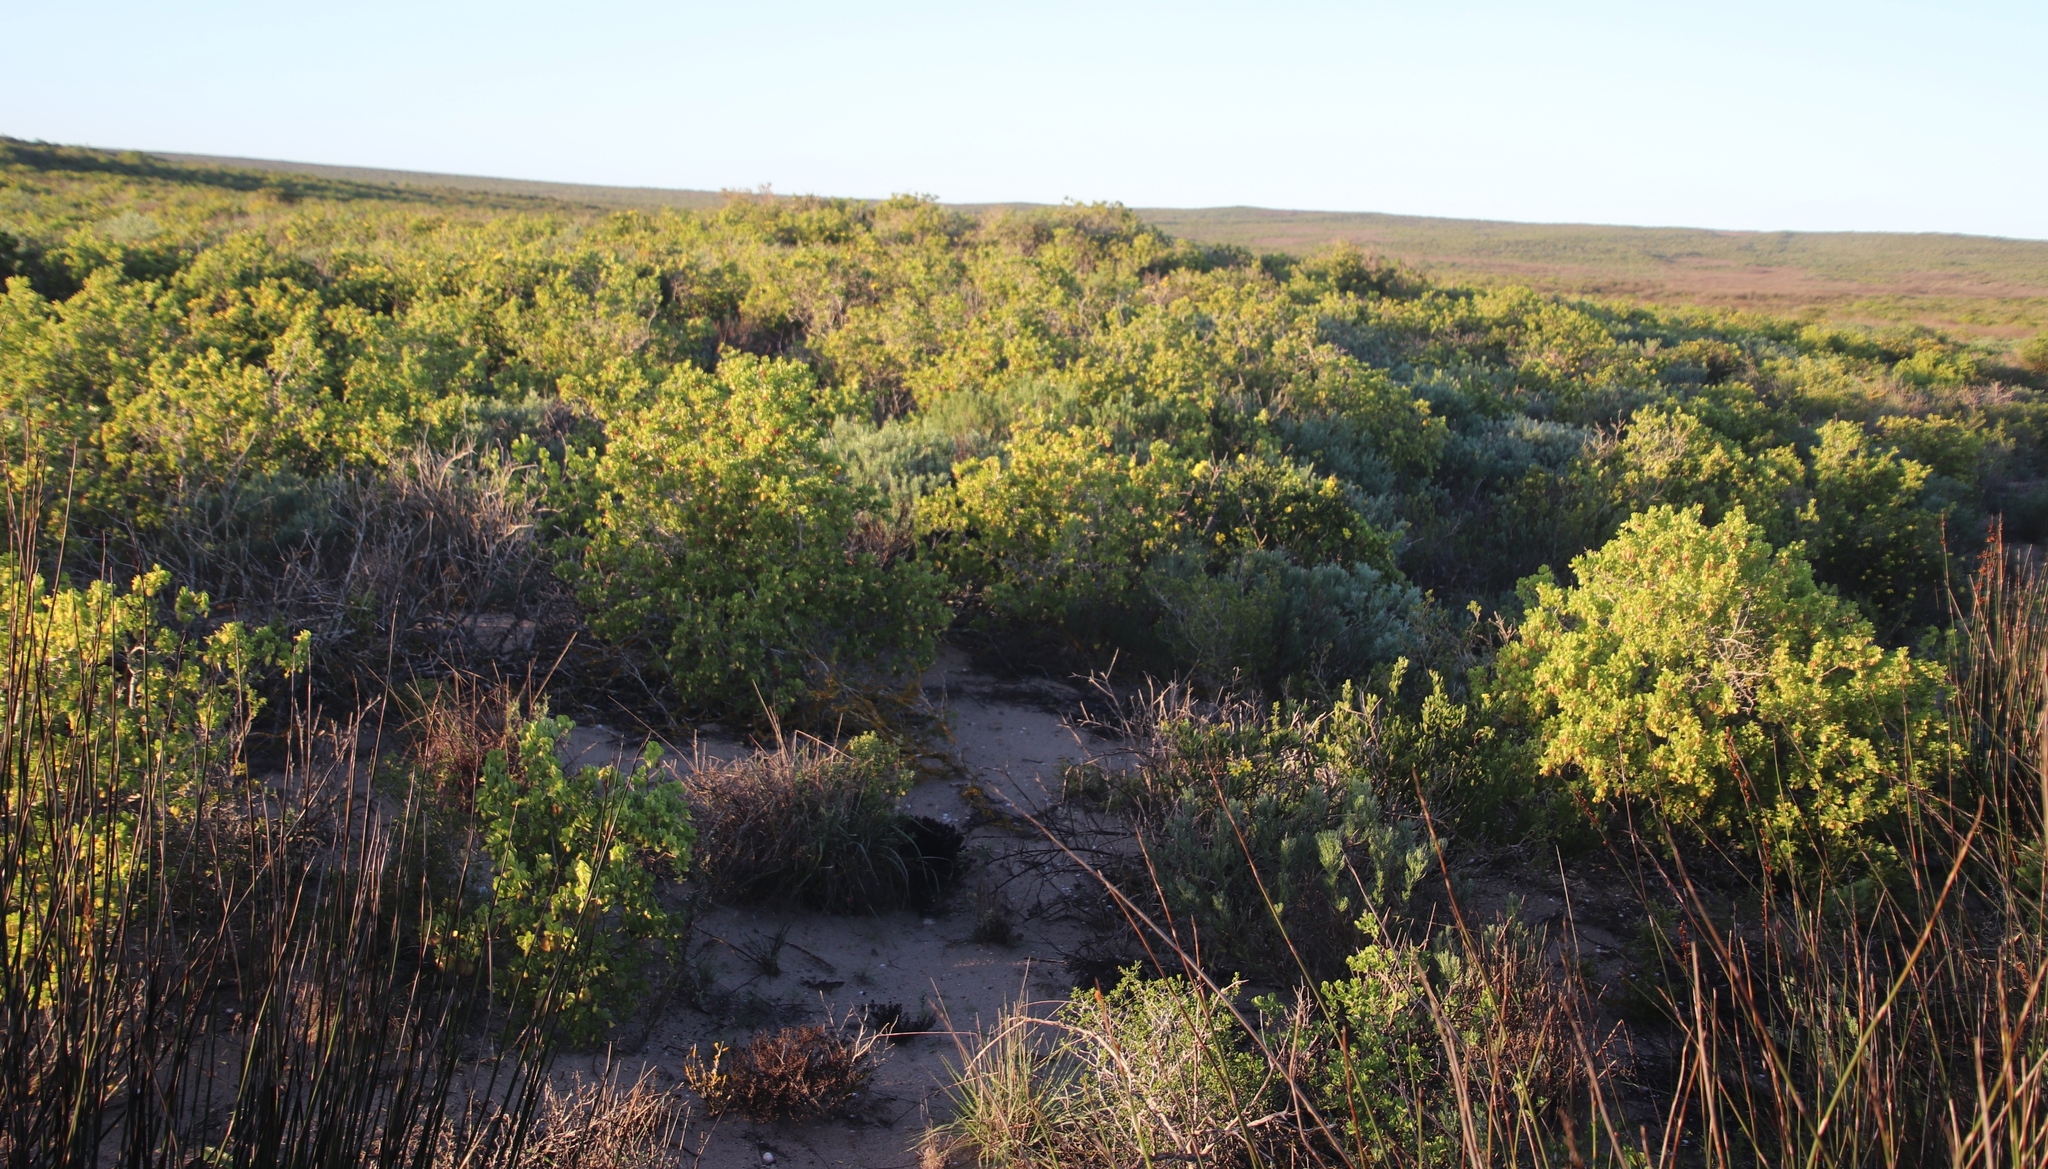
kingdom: Plantae
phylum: Tracheophyta
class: Magnoliopsida
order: Zygophyllales
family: Zygophyllaceae
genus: Roepera
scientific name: Roepera morgsana
